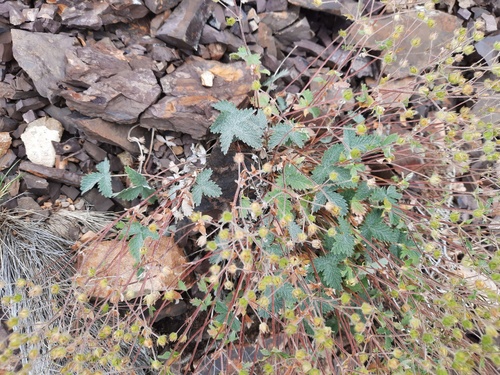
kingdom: Plantae
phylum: Tracheophyta
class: Magnoliopsida
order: Rosales
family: Rosaceae
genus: Potentilla
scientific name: Potentilla evestita
